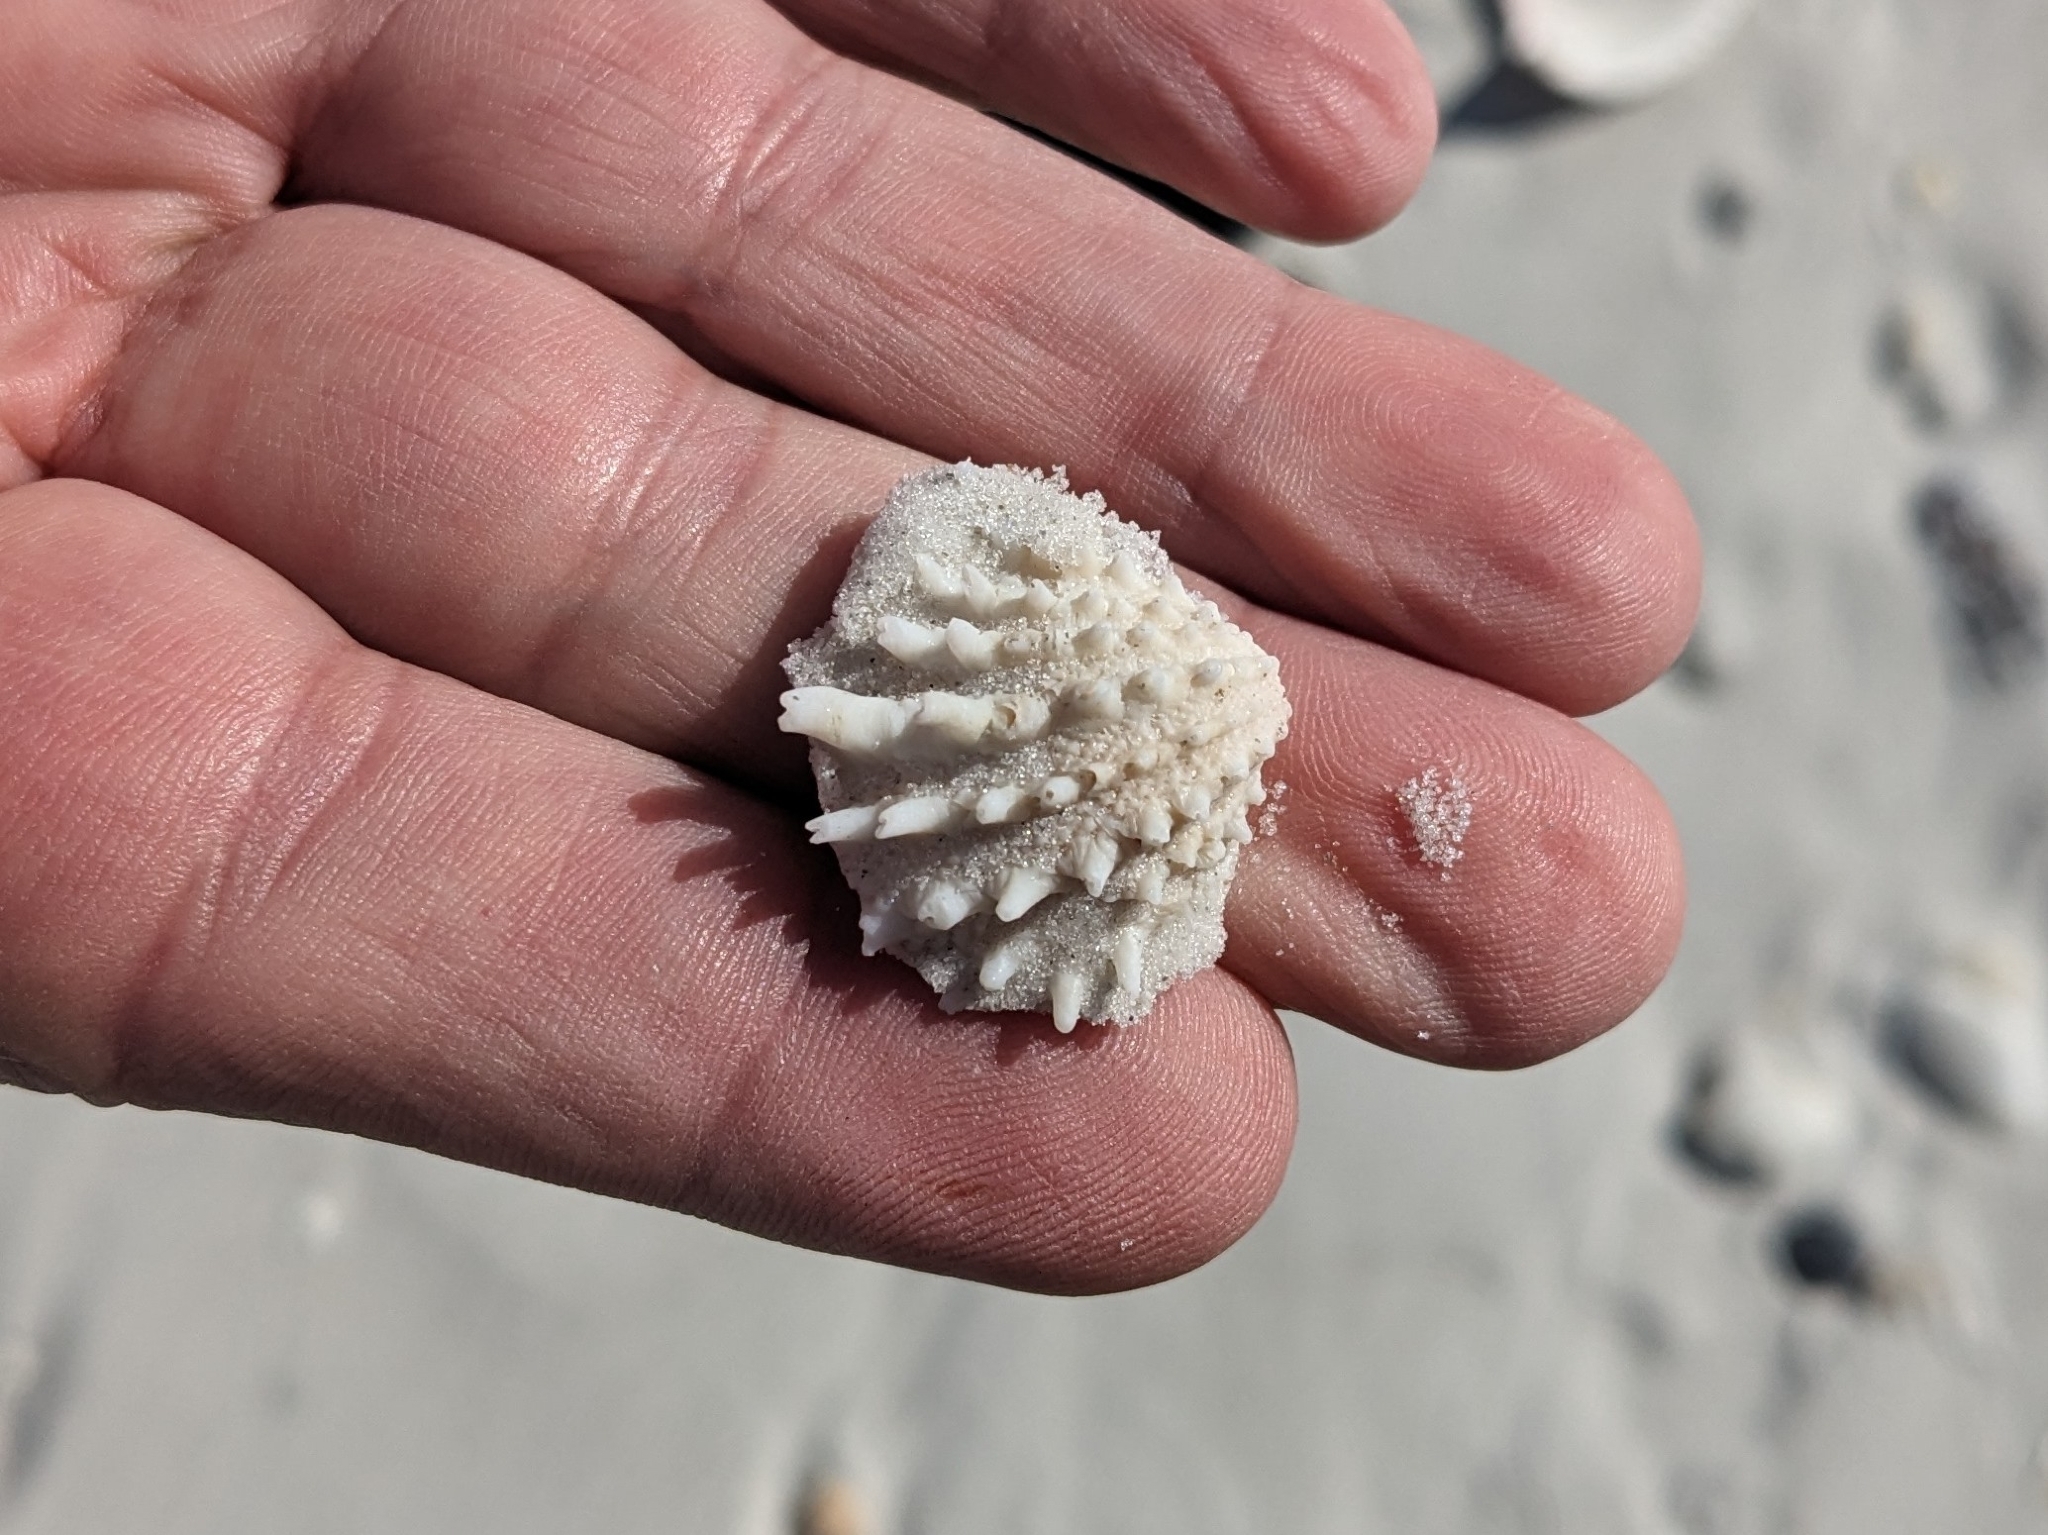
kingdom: Animalia
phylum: Mollusca
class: Bivalvia
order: Venerida
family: Chamidae
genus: Arcinella
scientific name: Arcinella cornuta
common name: Florida spiny jewel box
